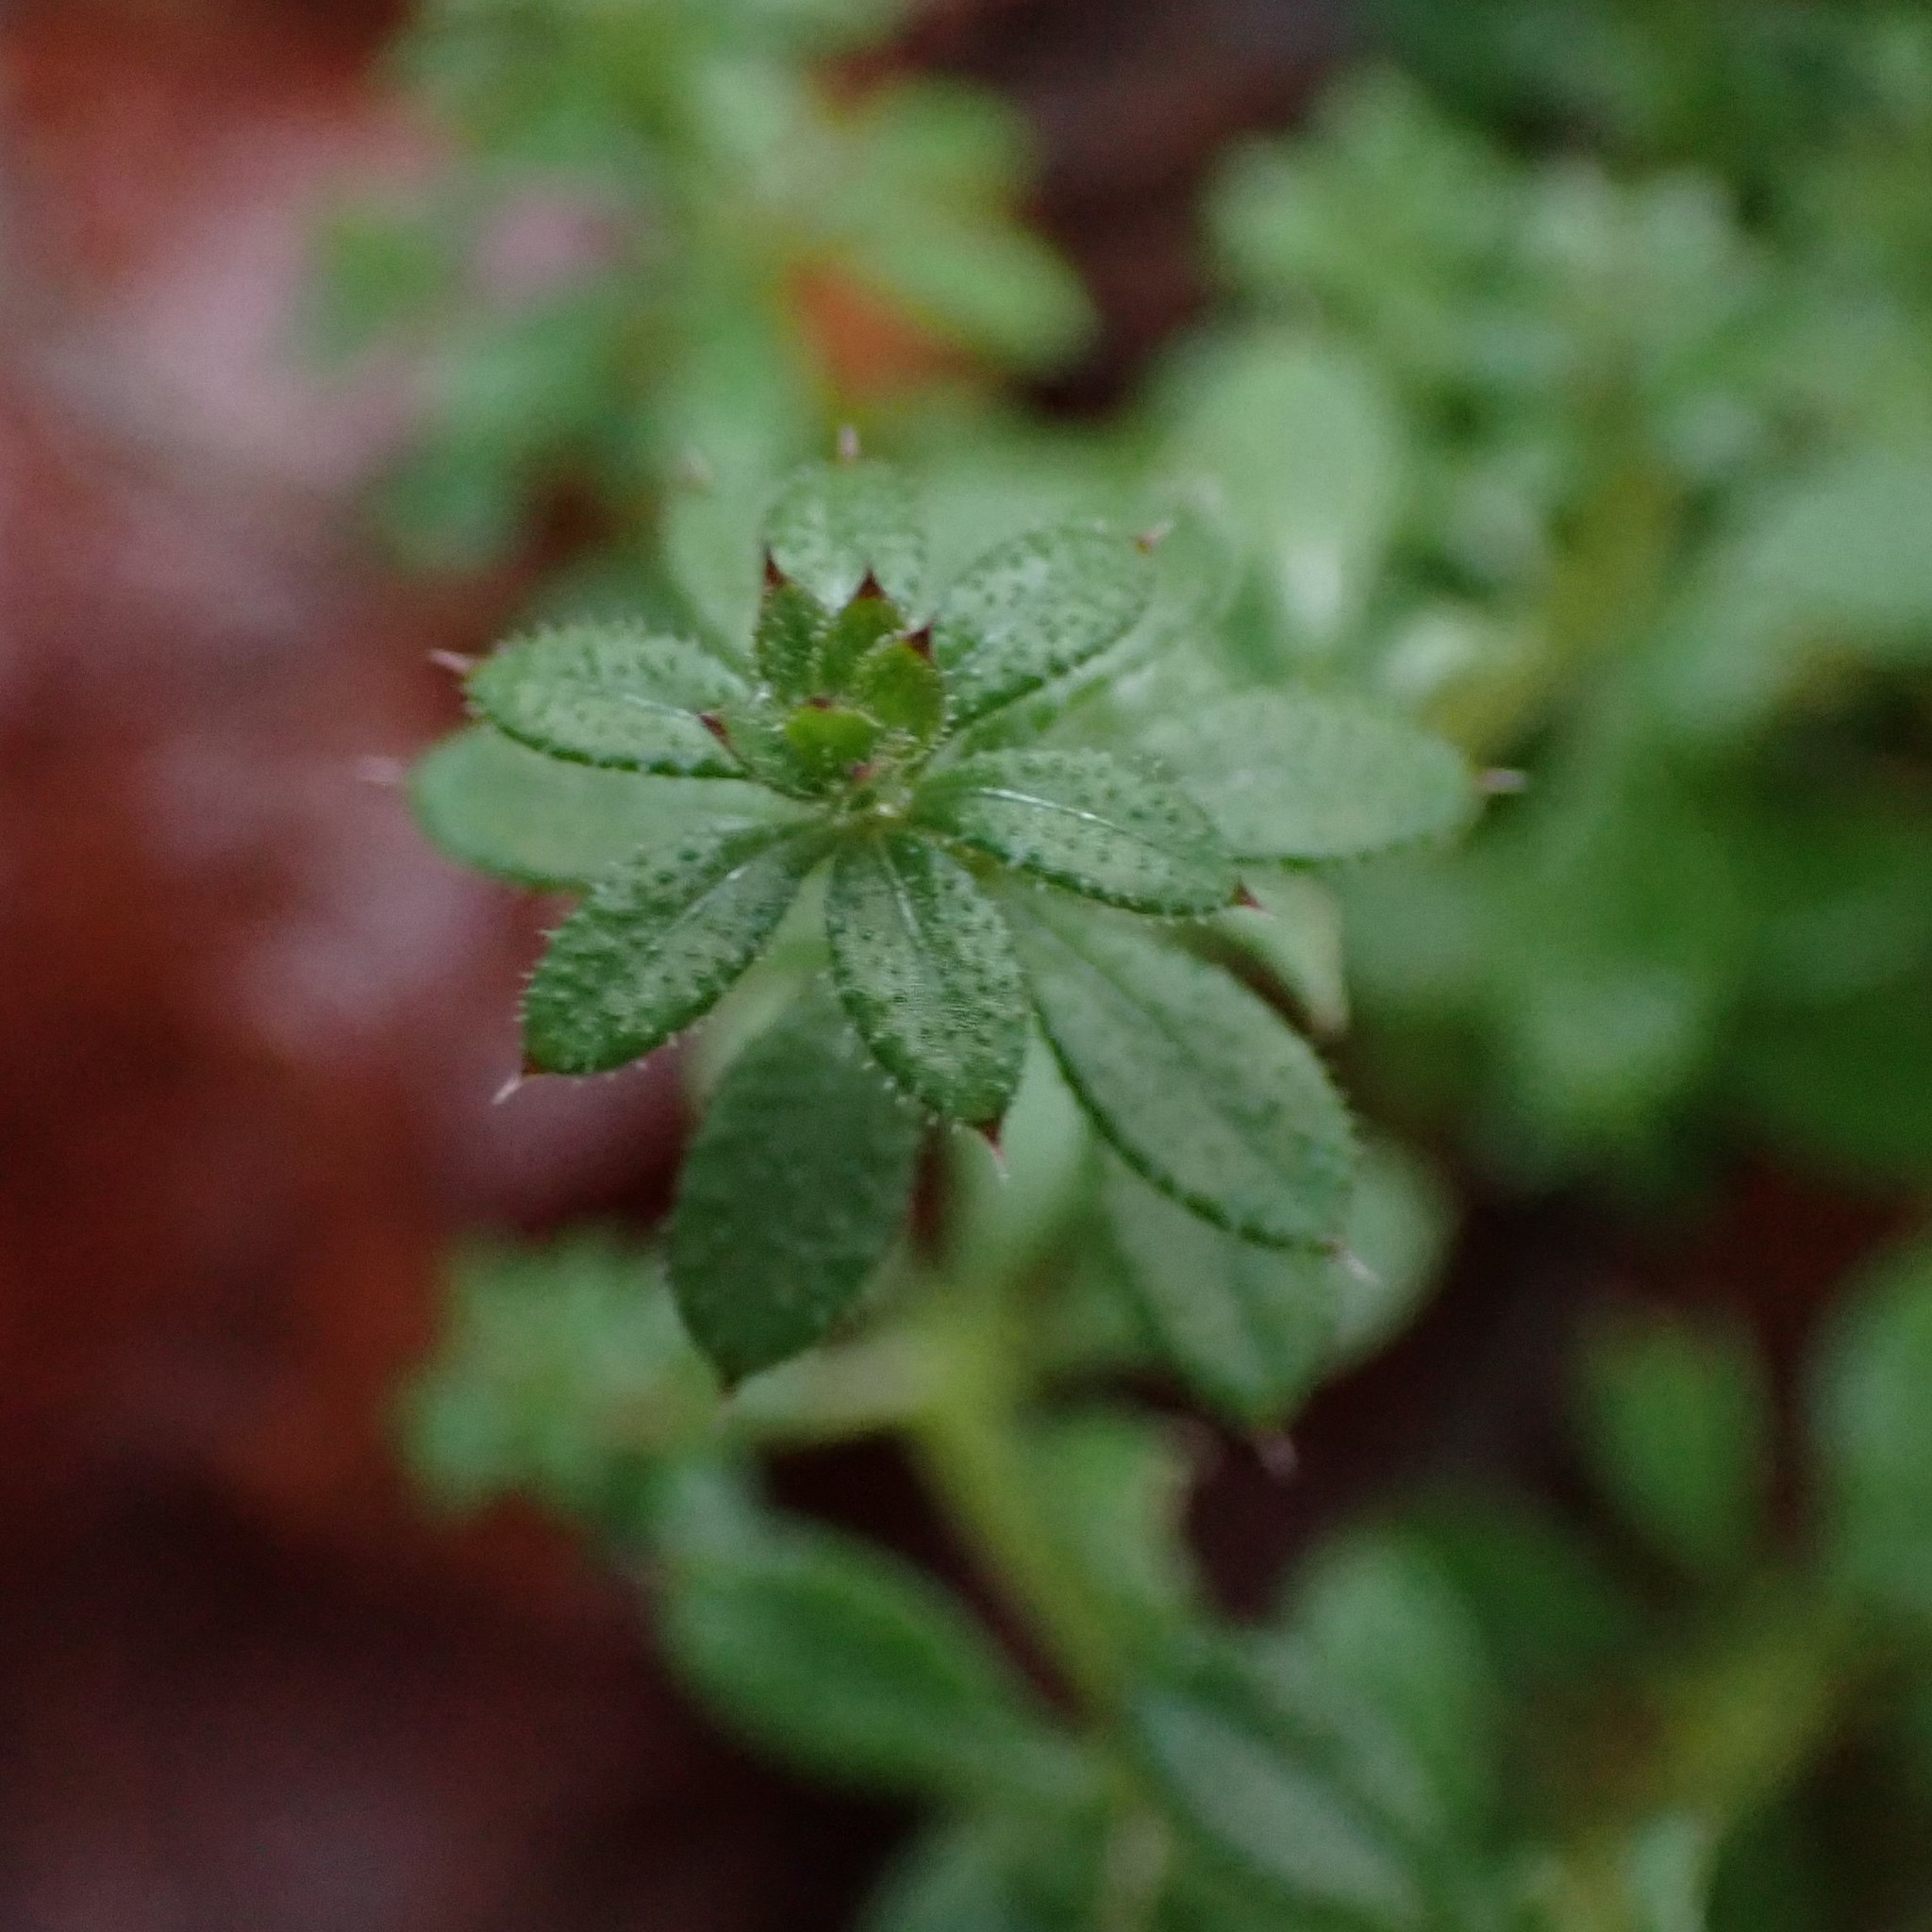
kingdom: Plantae
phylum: Tracheophyta
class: Magnoliopsida
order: Gentianales
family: Rubiaceae
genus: Galium
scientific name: Galium aparine
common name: Cleavers
